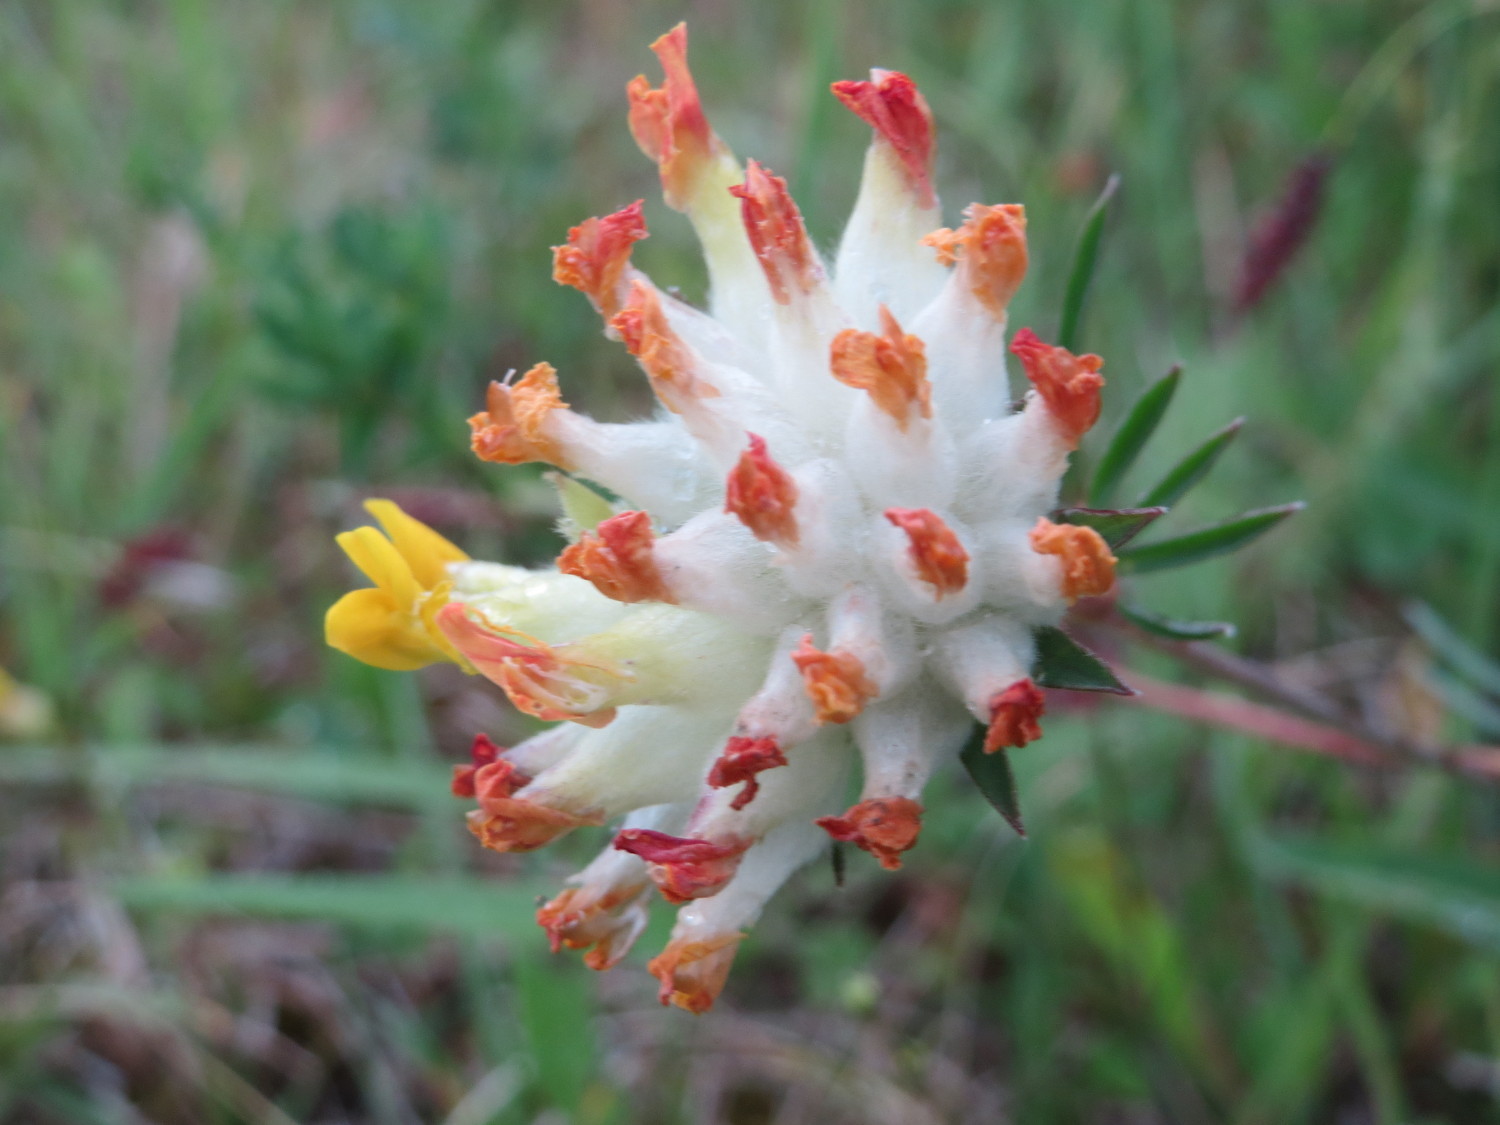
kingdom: Plantae
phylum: Tracheophyta
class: Magnoliopsida
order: Fabales
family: Fabaceae
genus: Anthyllis
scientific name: Anthyllis vulneraria
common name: Kidney vetch
